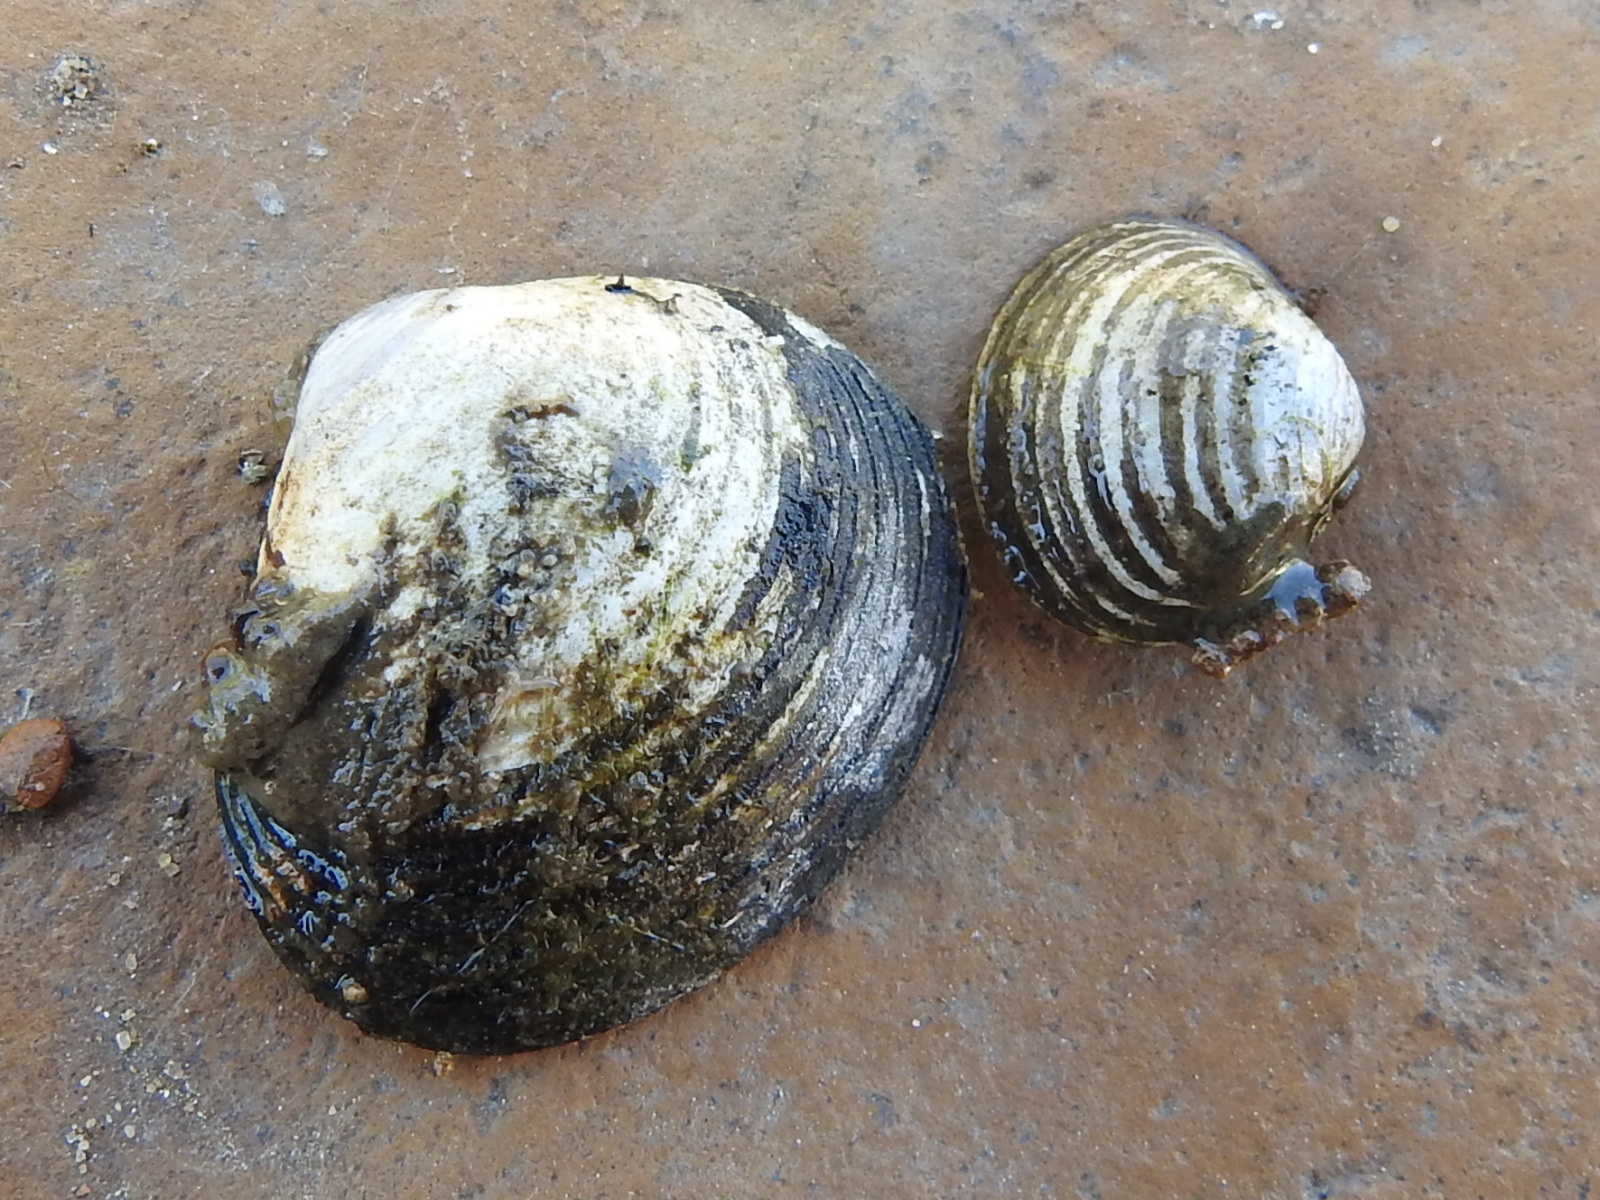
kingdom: Animalia
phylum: Mollusca
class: Bivalvia
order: Venerida
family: Cyrenidae
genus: Corbicula
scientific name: Corbicula fluminea
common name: Asian clam
